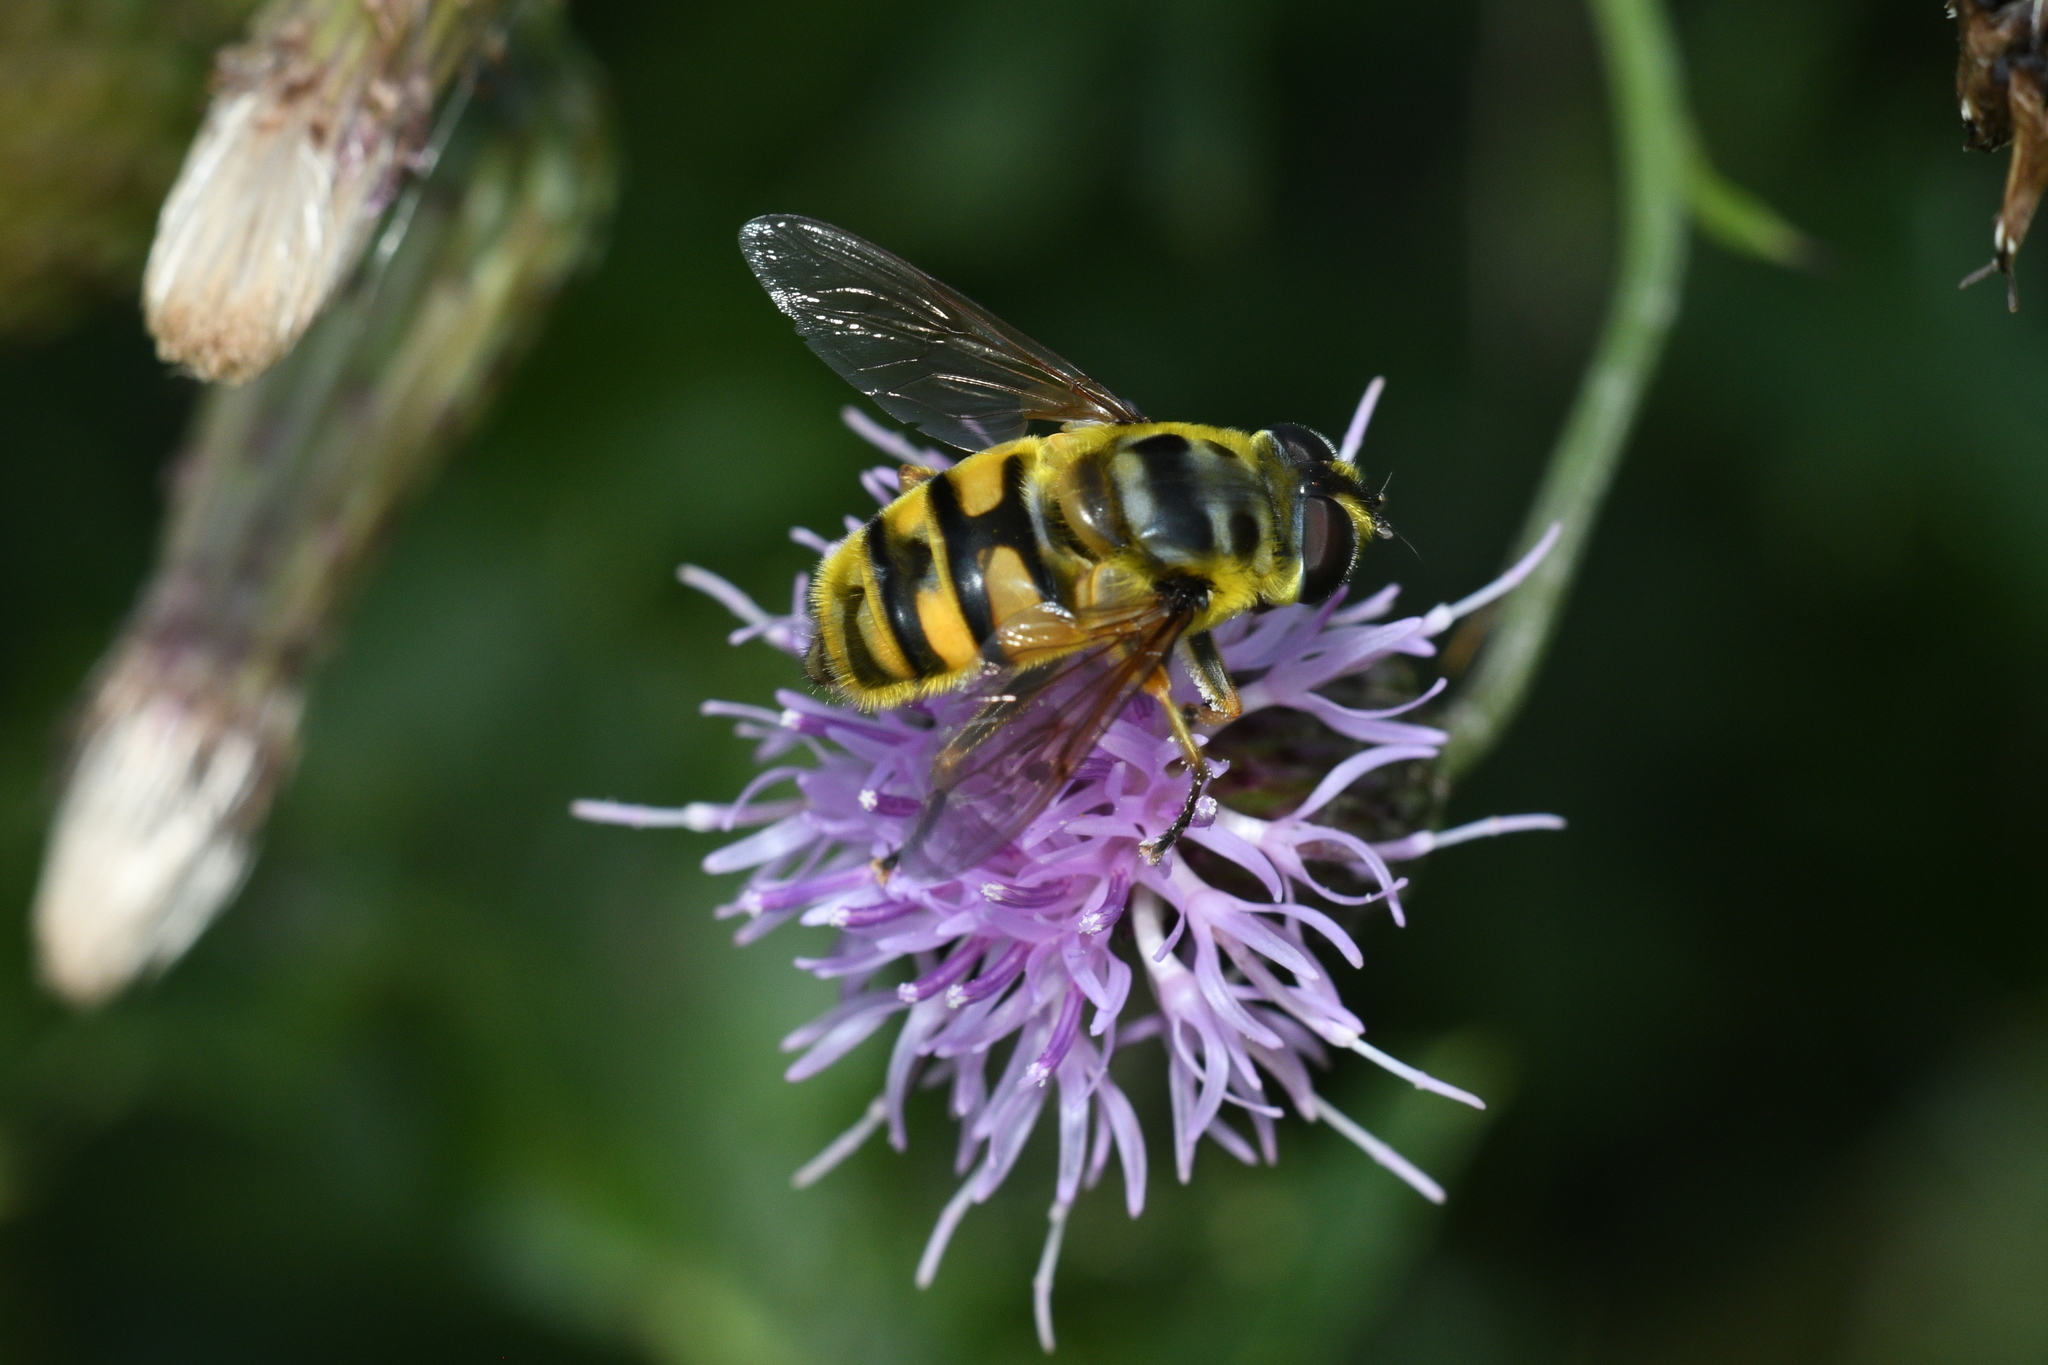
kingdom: Animalia
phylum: Arthropoda
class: Insecta
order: Diptera
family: Syrphidae
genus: Myathropa
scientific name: Myathropa florea
